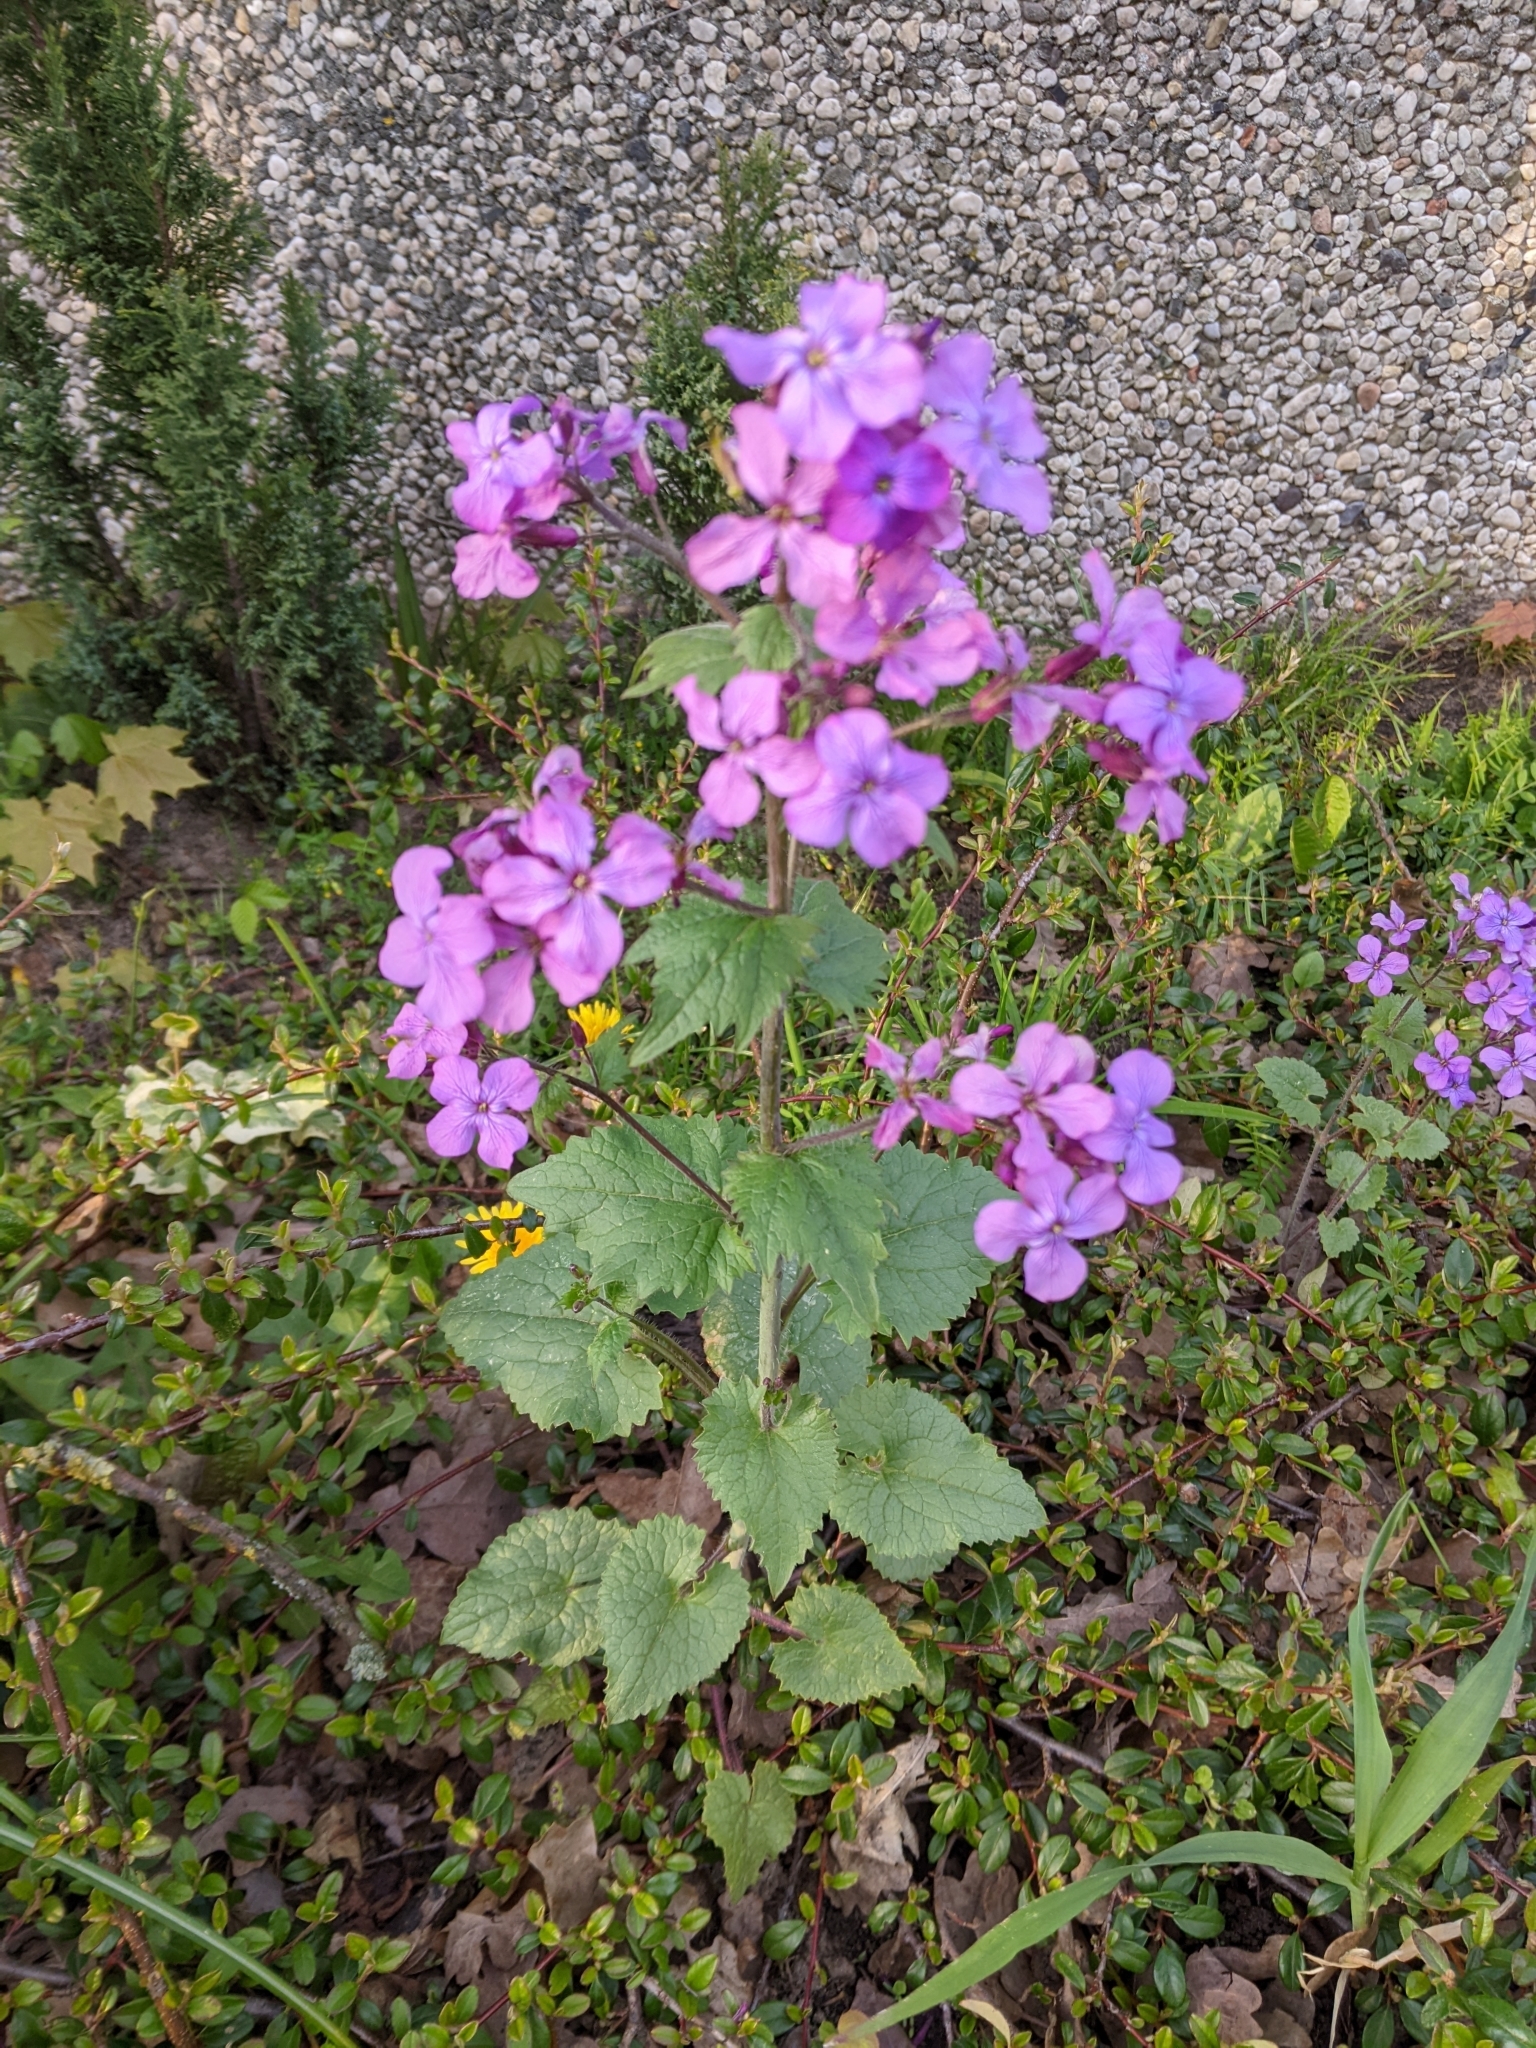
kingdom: Plantae
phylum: Tracheophyta
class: Magnoliopsida
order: Brassicales
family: Brassicaceae
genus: Lunaria
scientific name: Lunaria annua
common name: Honesty
